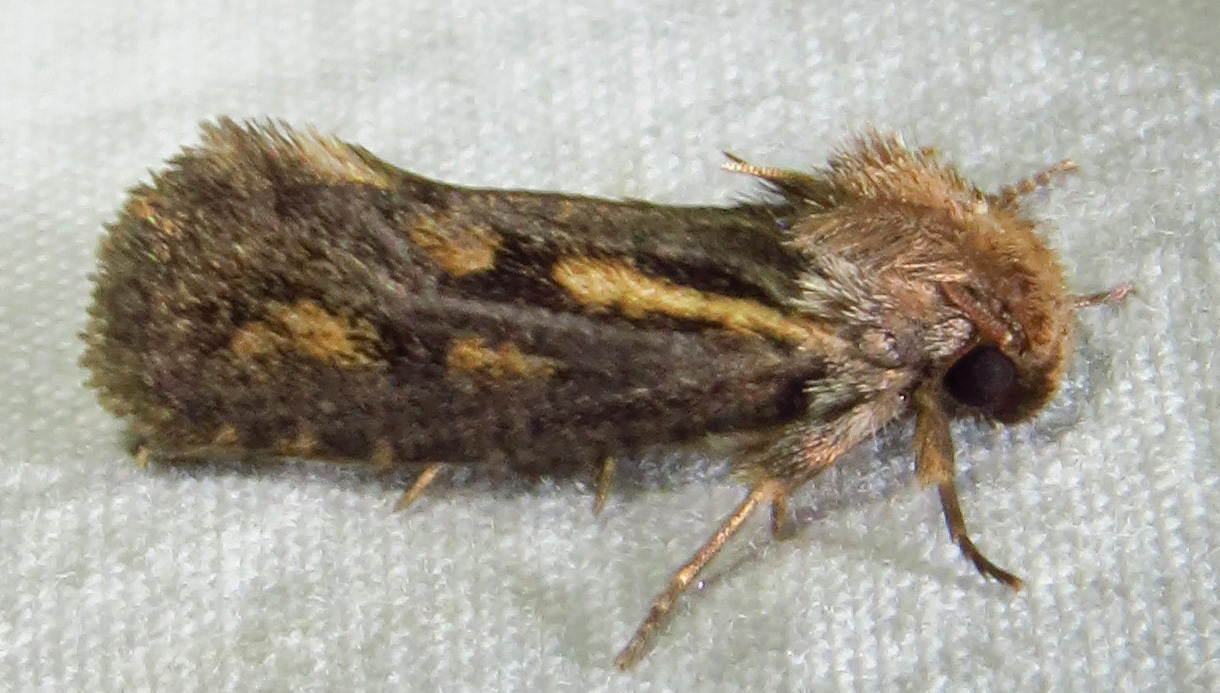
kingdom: Animalia
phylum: Arthropoda
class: Insecta
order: Lepidoptera
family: Tineidae
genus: Acrolophus
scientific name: Acrolophus popeanella
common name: Clemens' grass tubeworm moth
